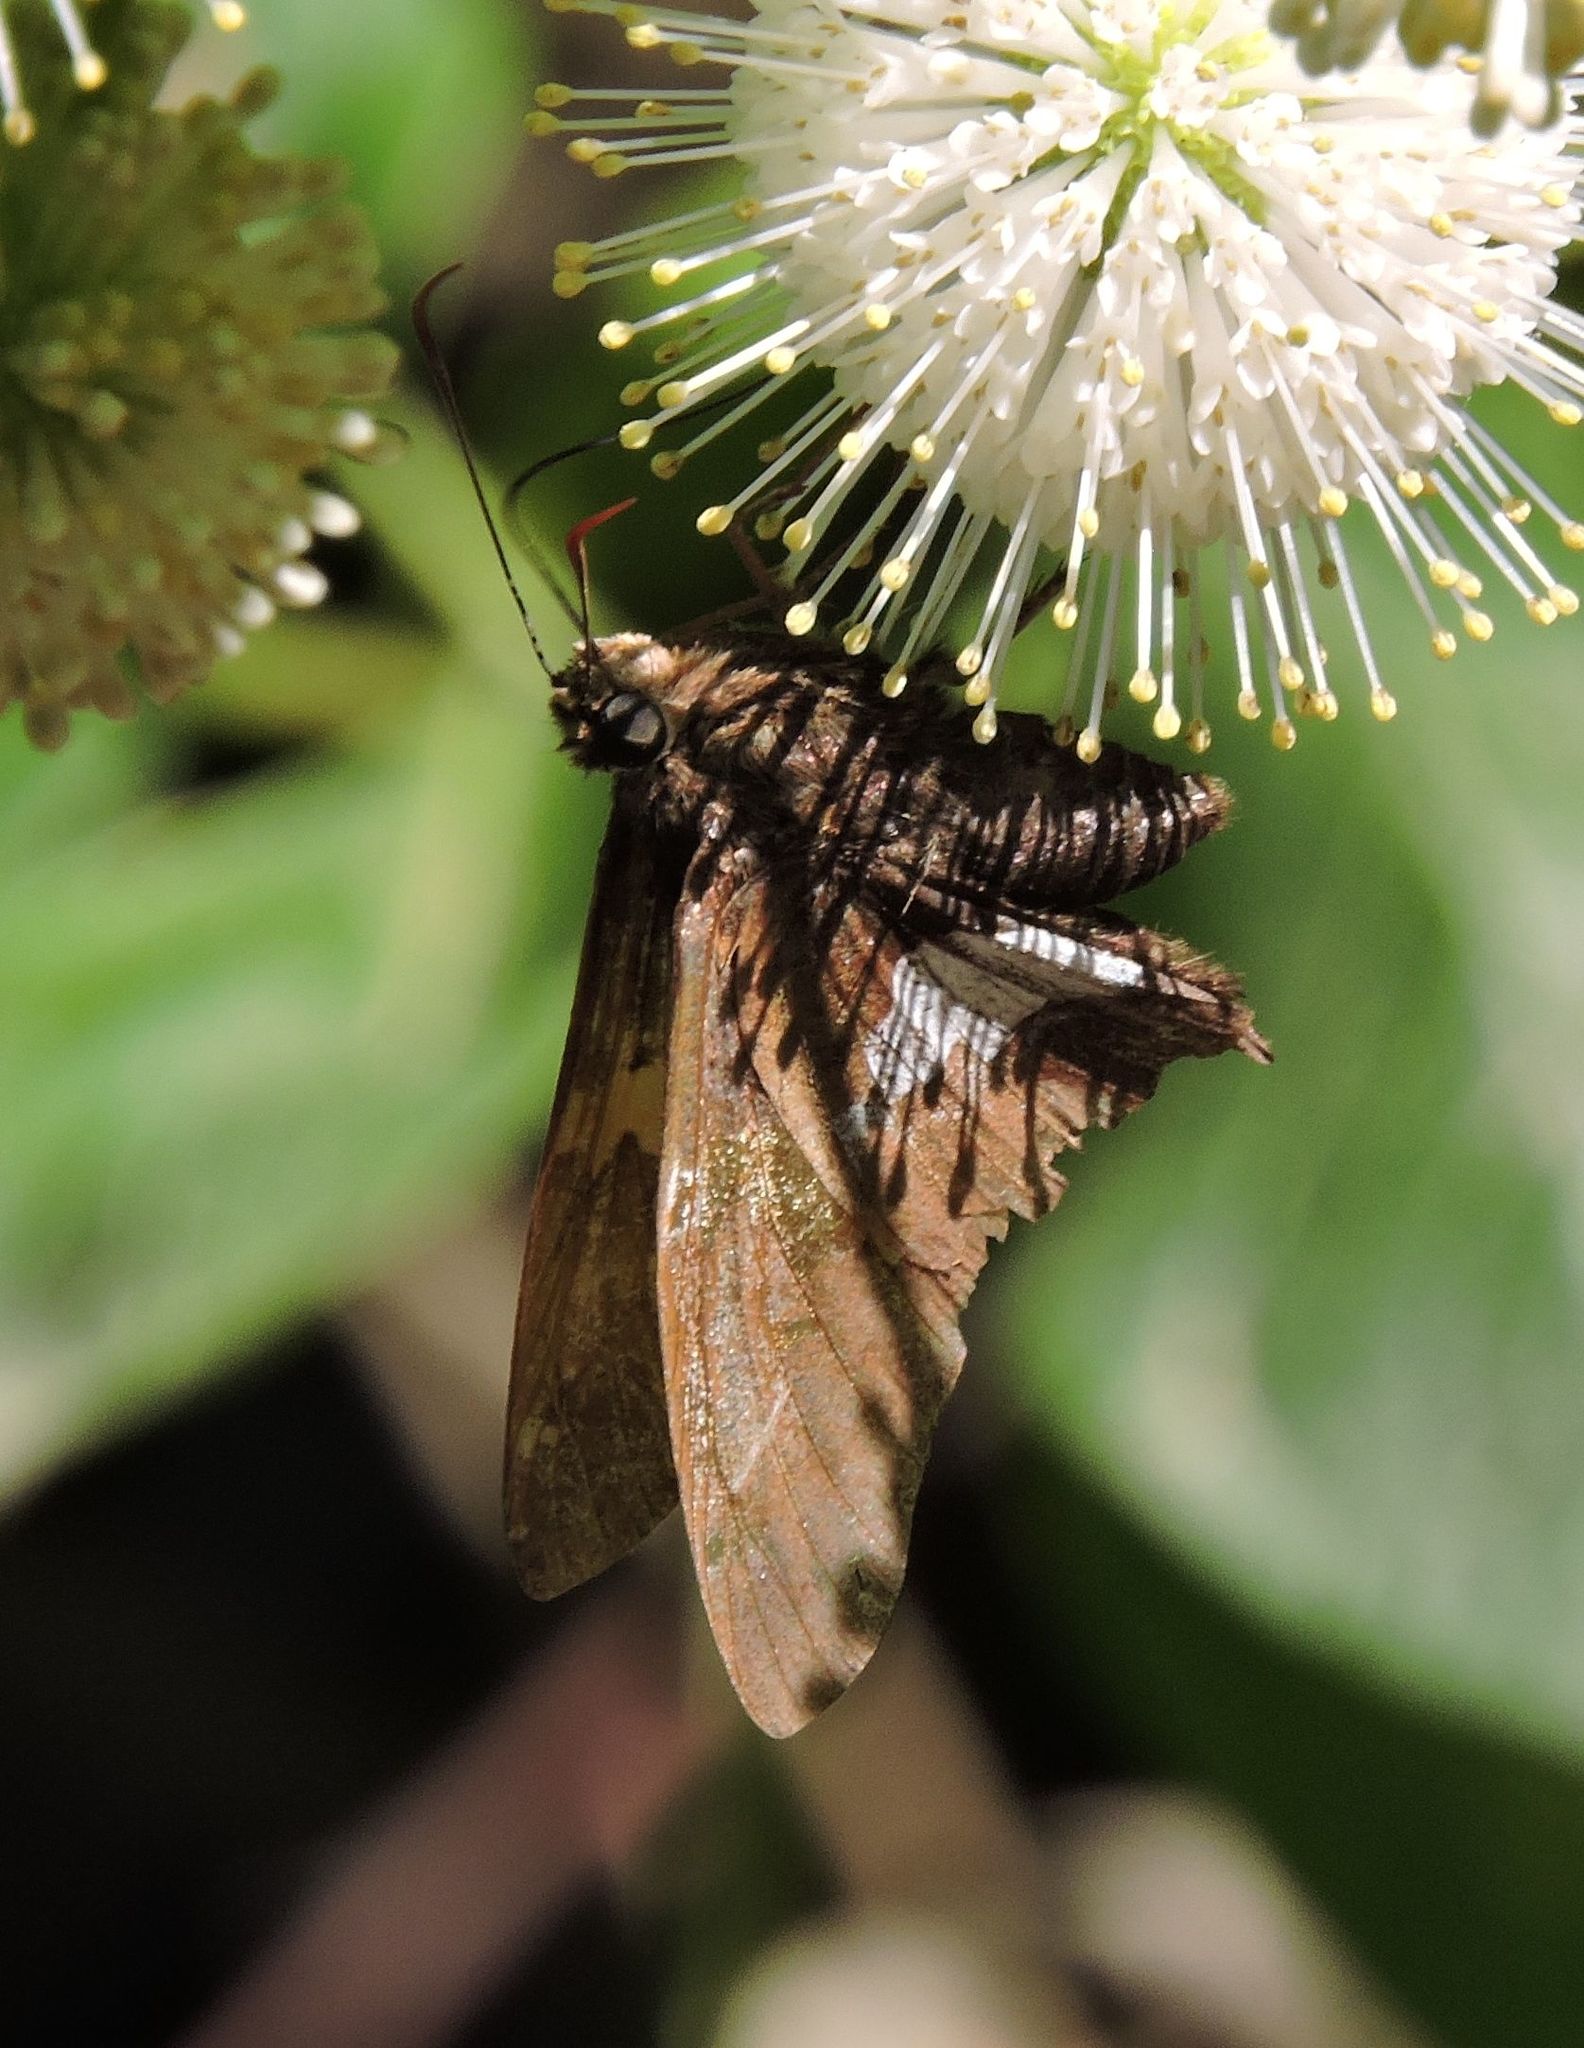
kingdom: Animalia
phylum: Arthropoda
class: Insecta
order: Lepidoptera
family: Hesperiidae
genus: Epargyreus
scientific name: Epargyreus clarus
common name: Silver-spotted skipper
